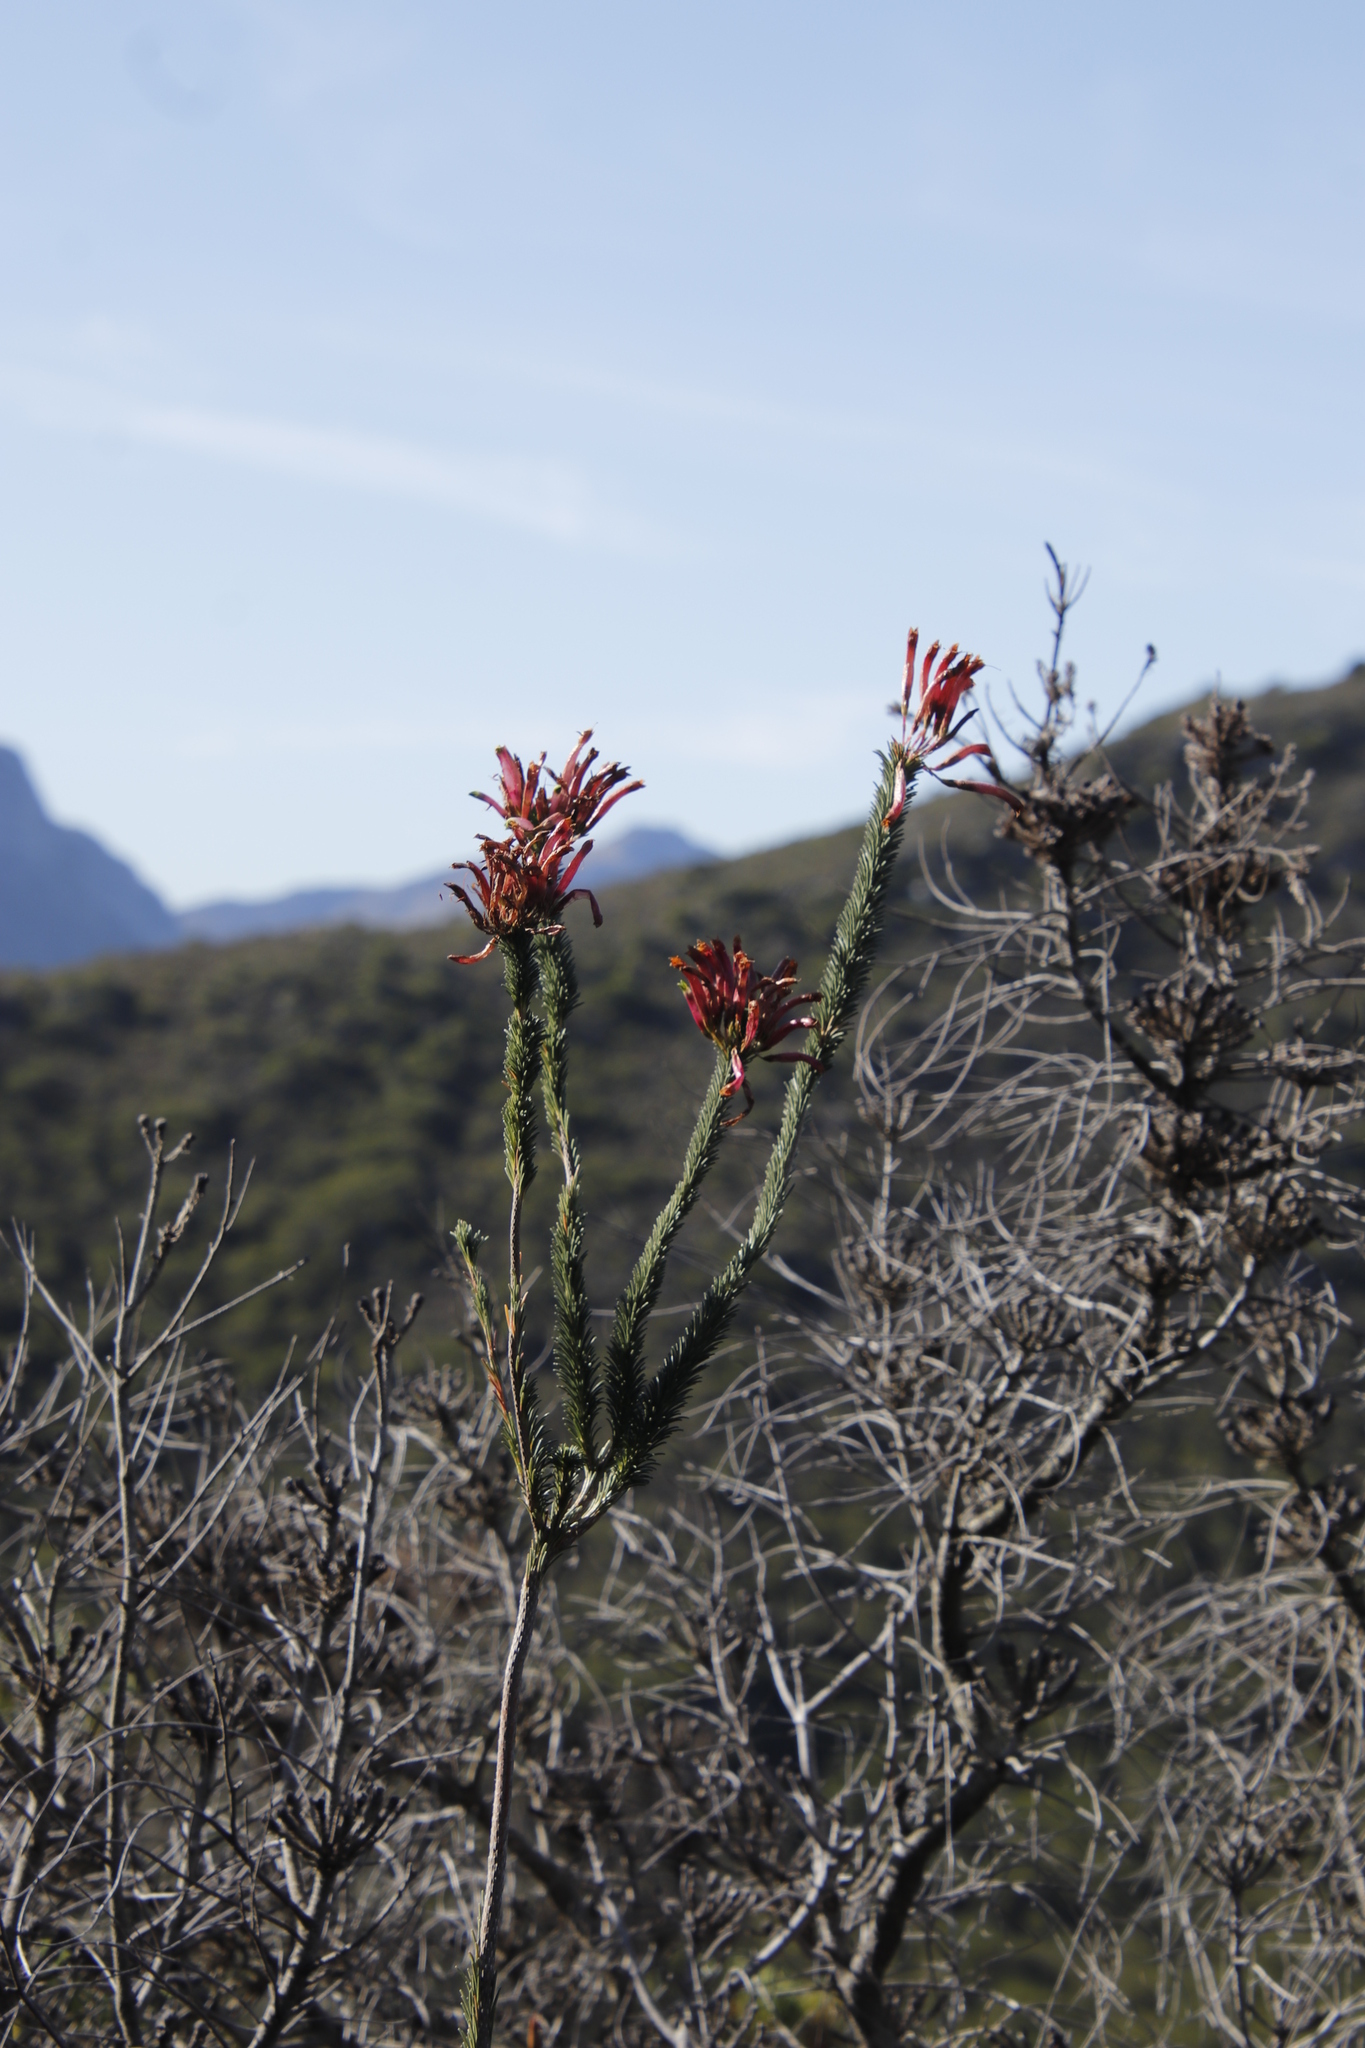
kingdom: Plantae
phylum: Tracheophyta
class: Magnoliopsida
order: Ericales
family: Ericaceae
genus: Erica
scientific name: Erica fascicularis
